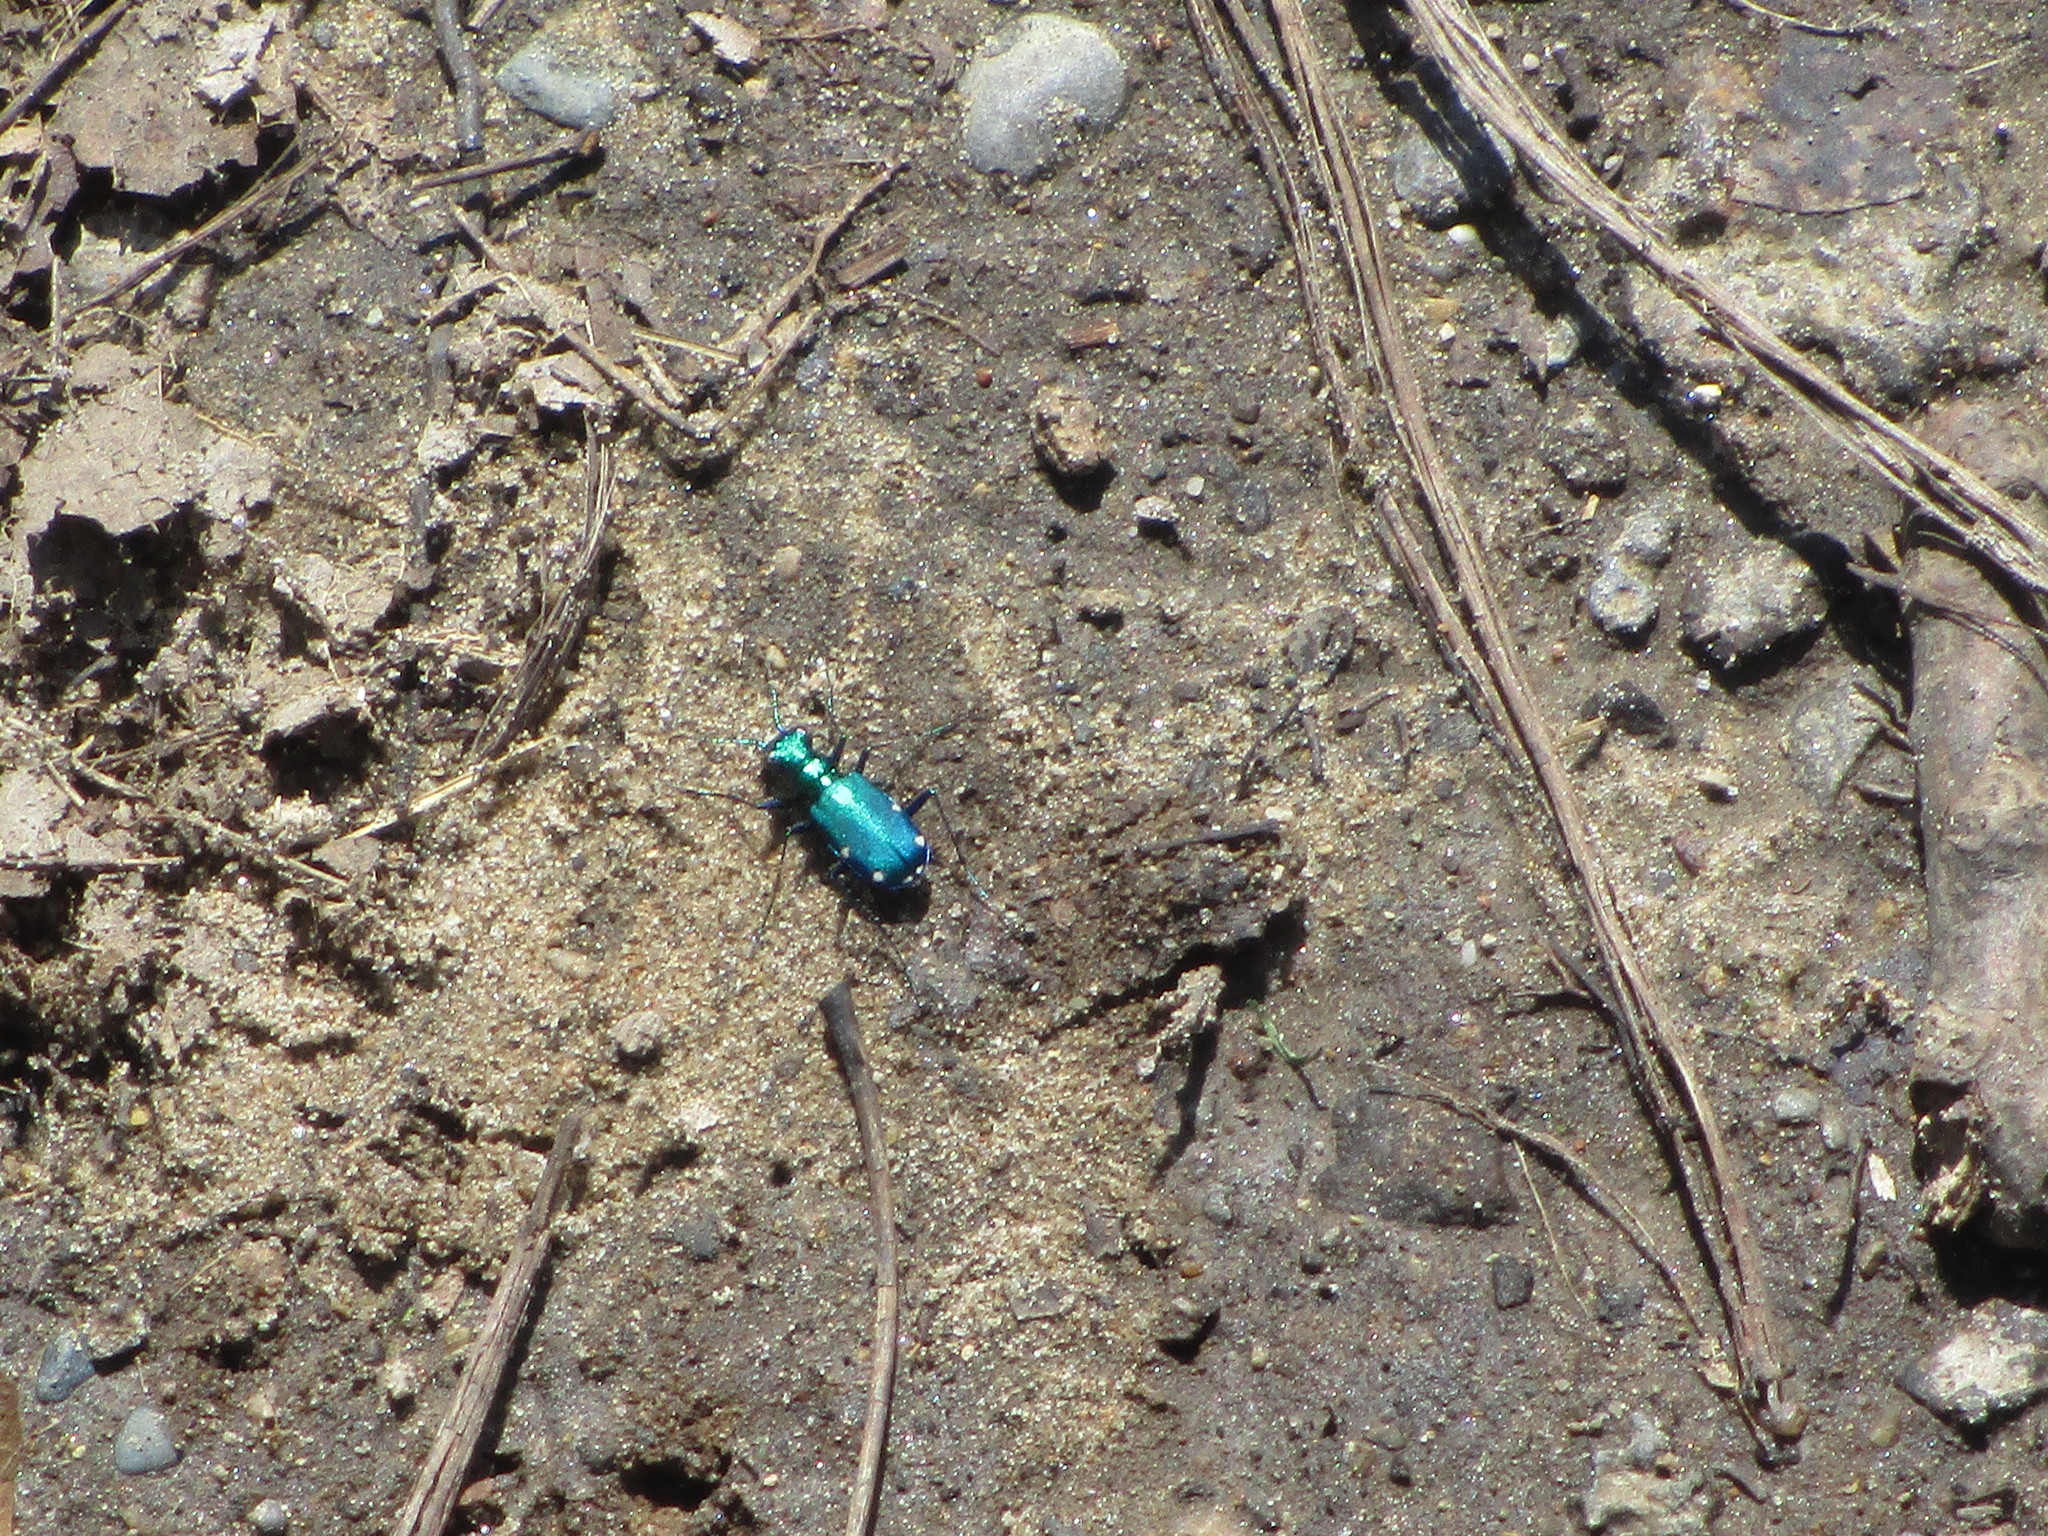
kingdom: Animalia
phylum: Arthropoda
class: Insecta
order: Coleoptera
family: Carabidae
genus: Cicindela
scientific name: Cicindela sexguttata
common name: Six-spotted tiger beetle
